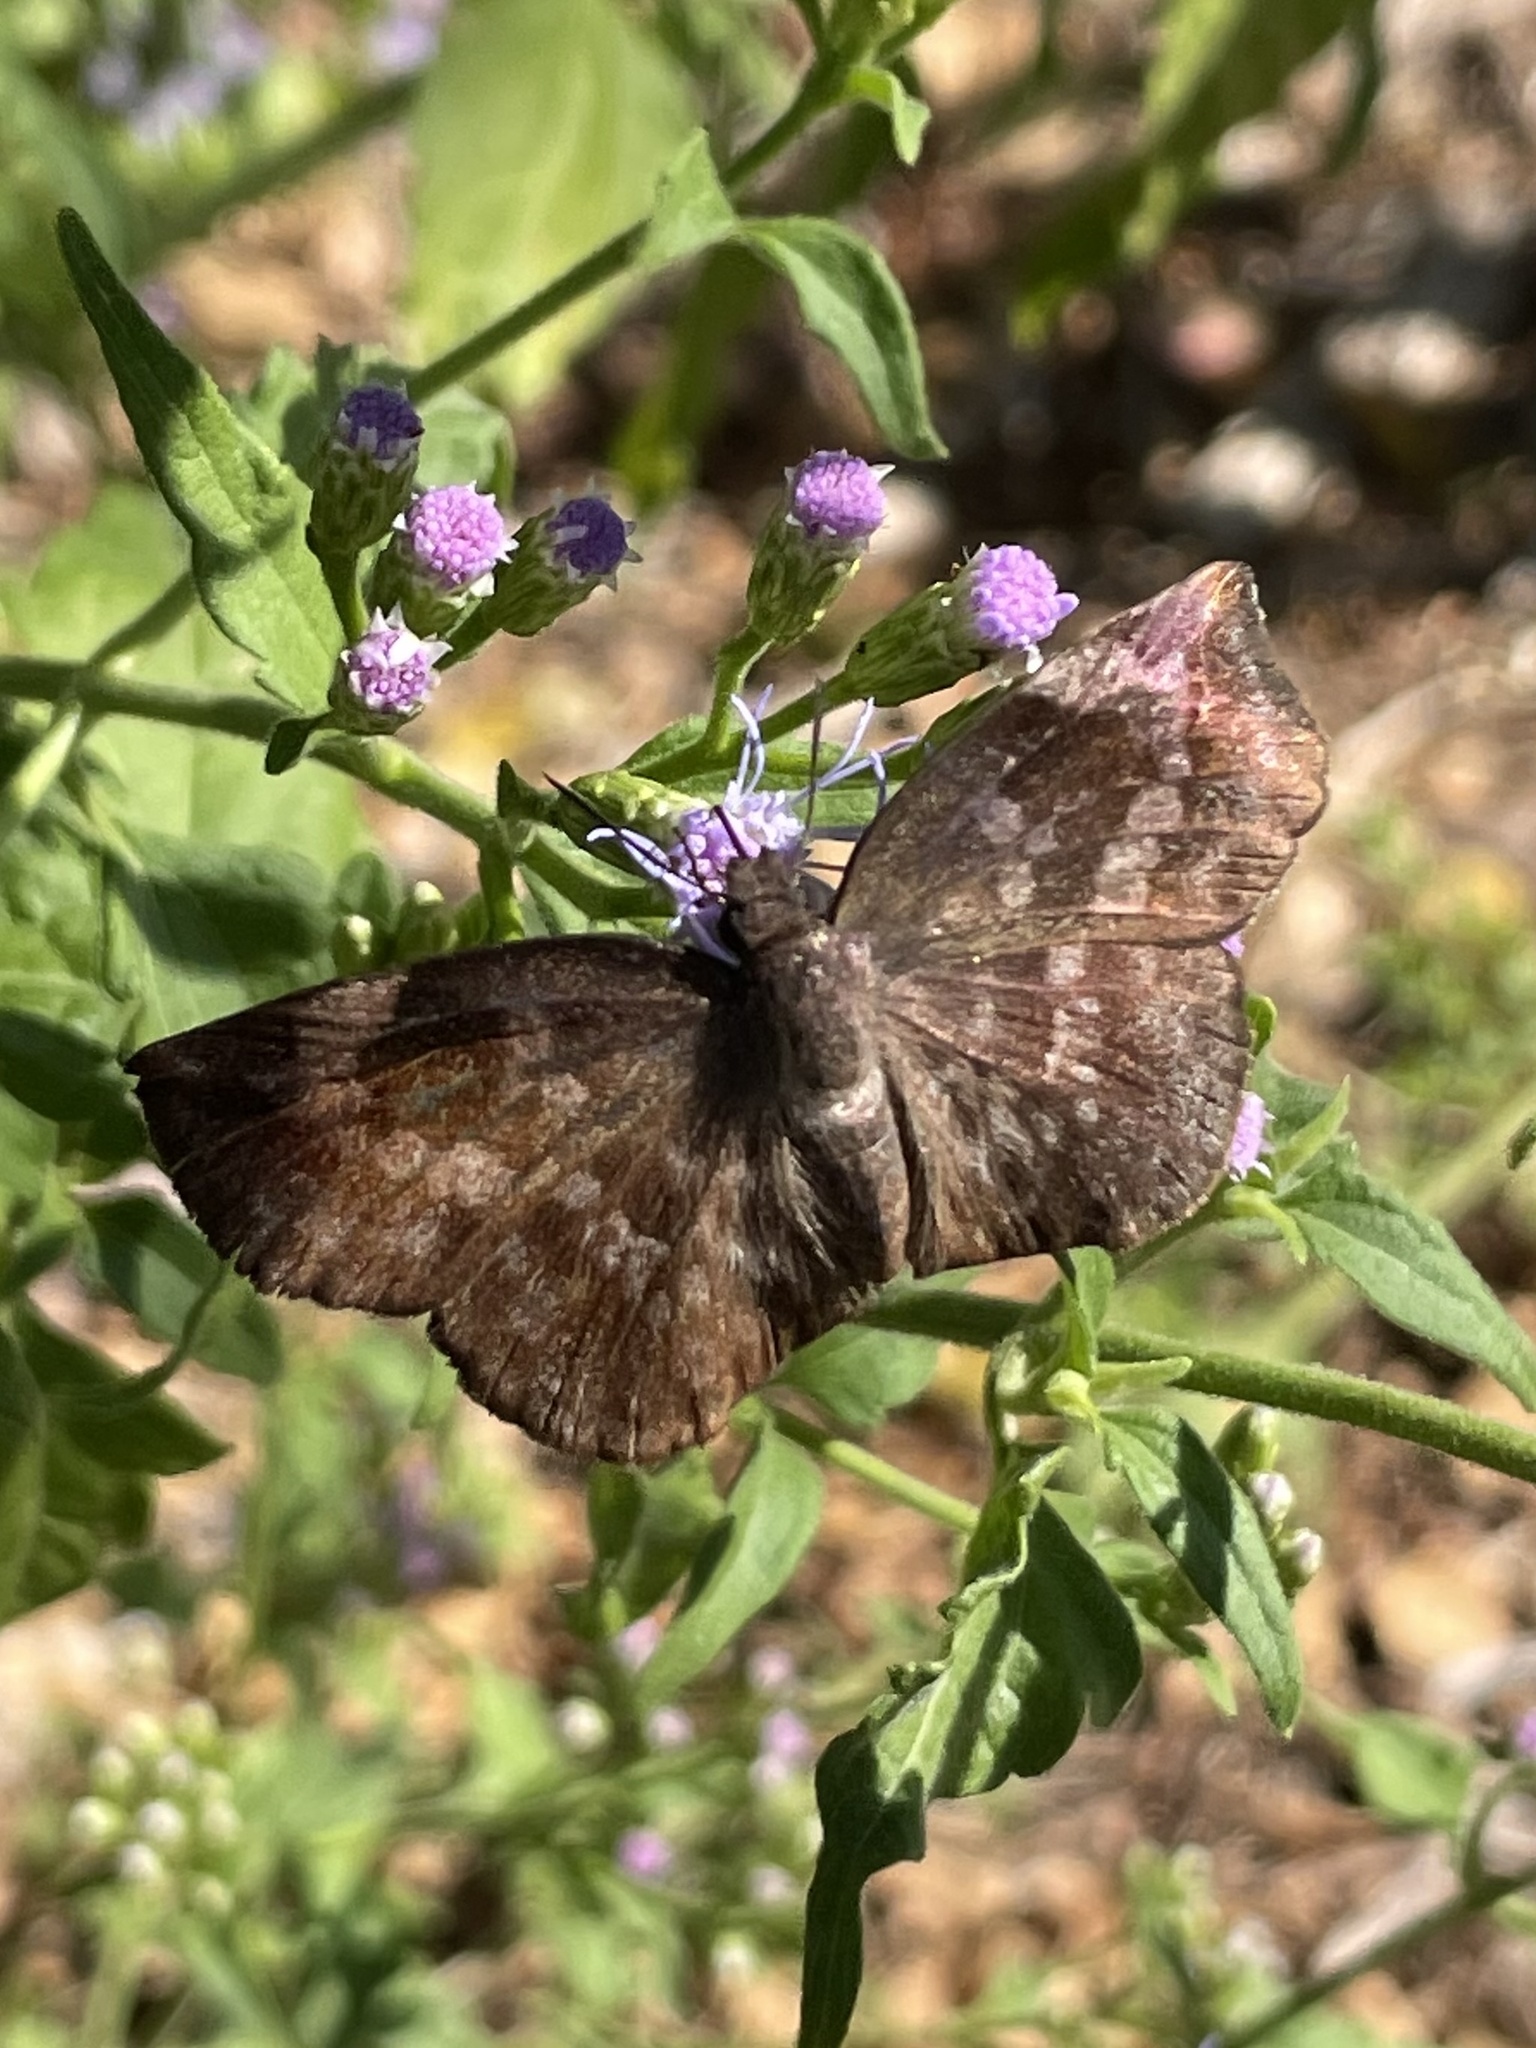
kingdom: Animalia
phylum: Arthropoda
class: Insecta
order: Lepidoptera
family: Hesperiidae
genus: Achlyodes
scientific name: Achlyodes thraso
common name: Sickle-winged skipper
